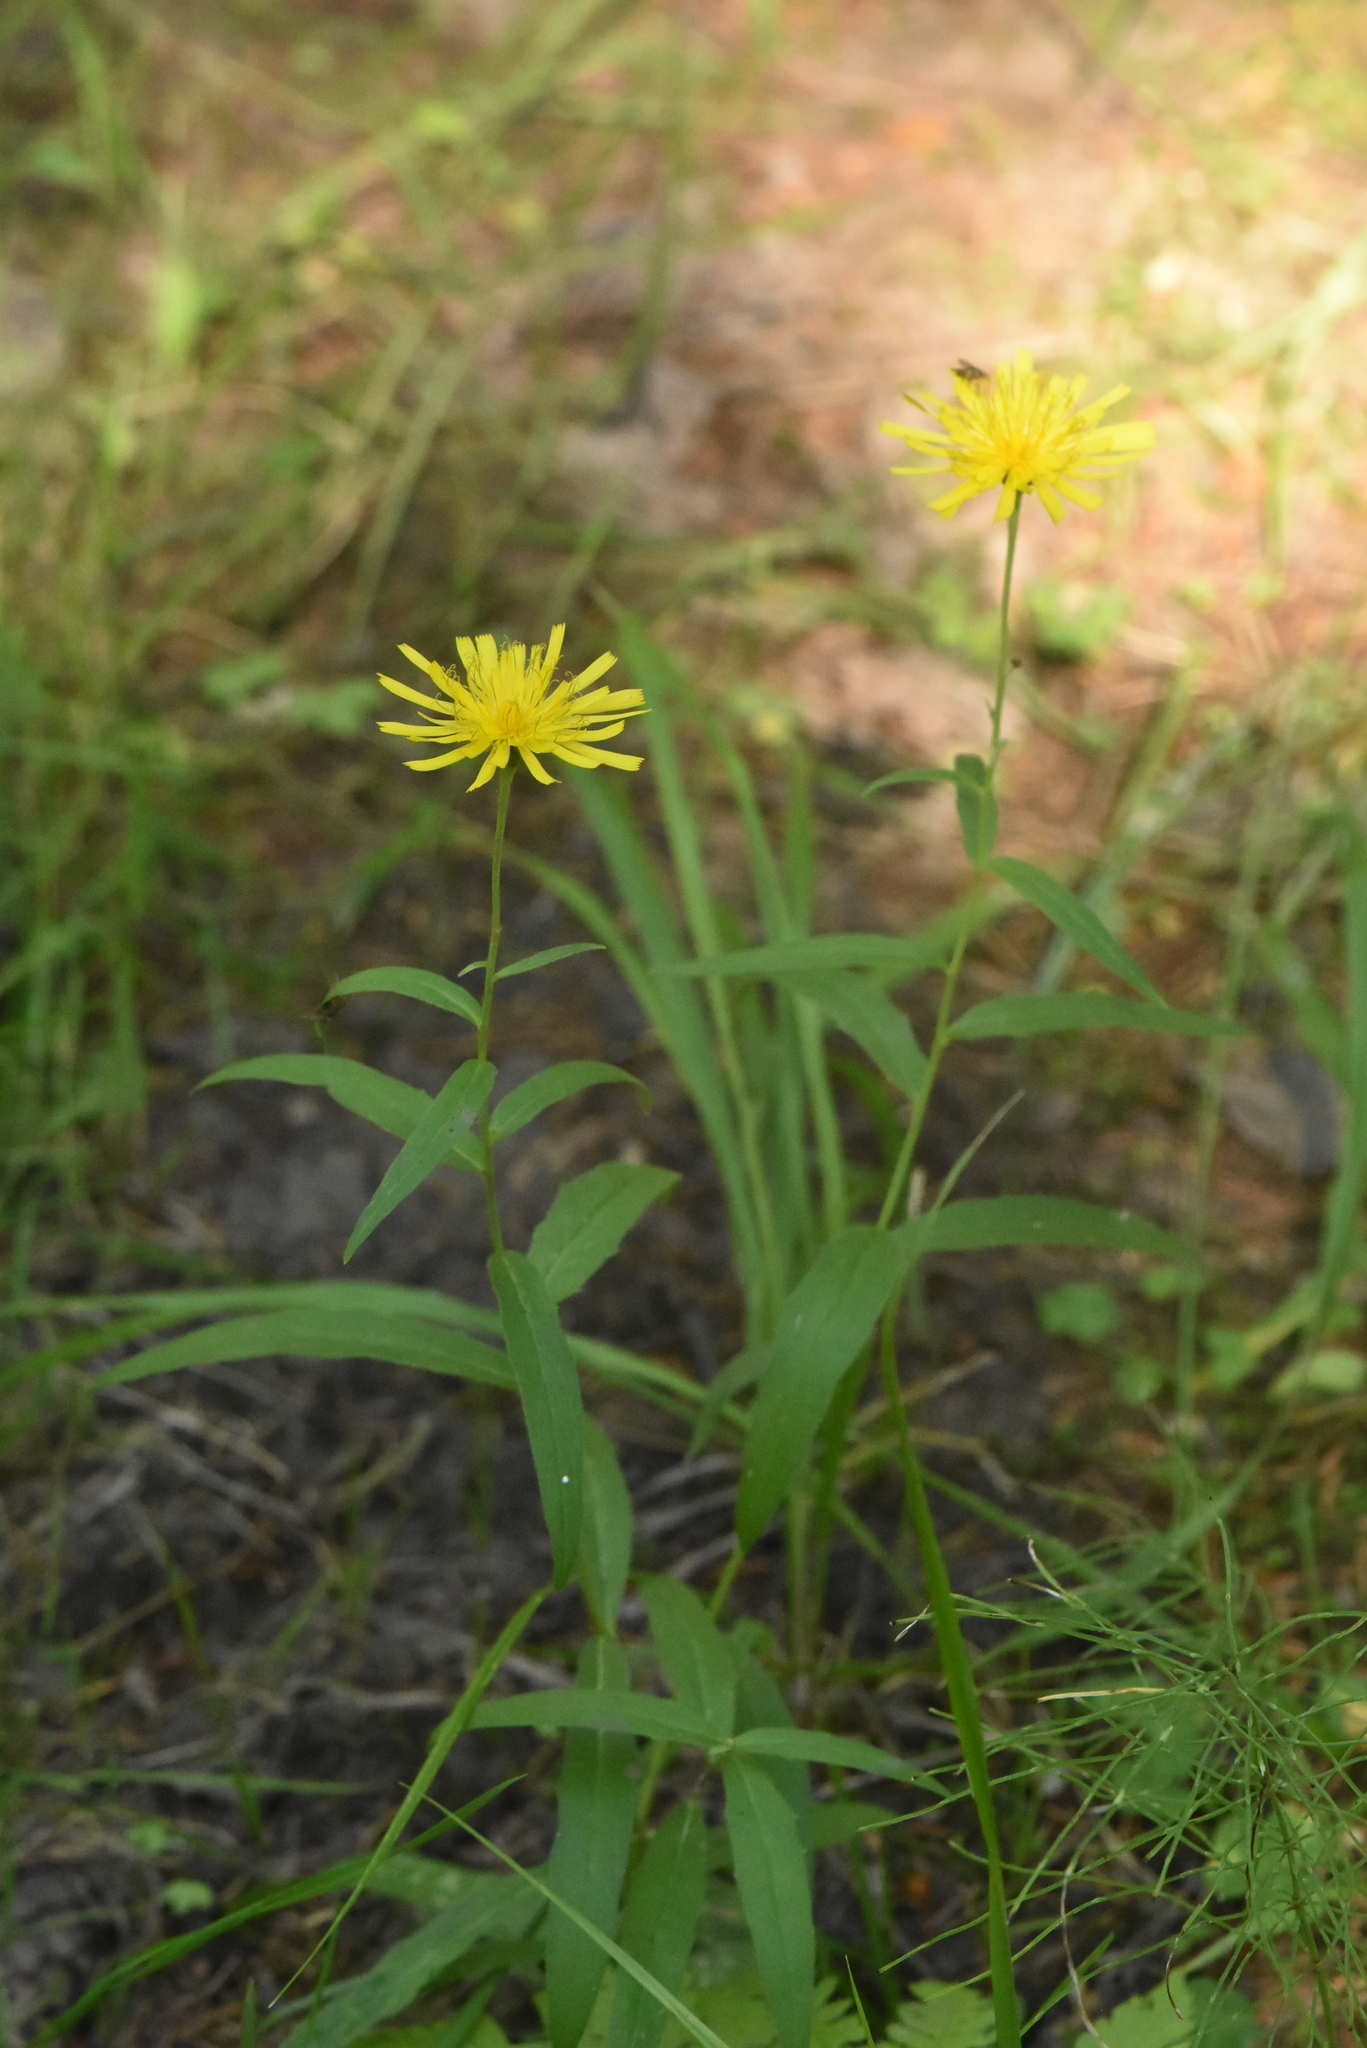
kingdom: Plantae
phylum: Tracheophyta
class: Magnoliopsida
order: Asterales
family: Asteraceae
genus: Hieracium
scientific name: Hieracium umbellatum
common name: Northern hawkweed
